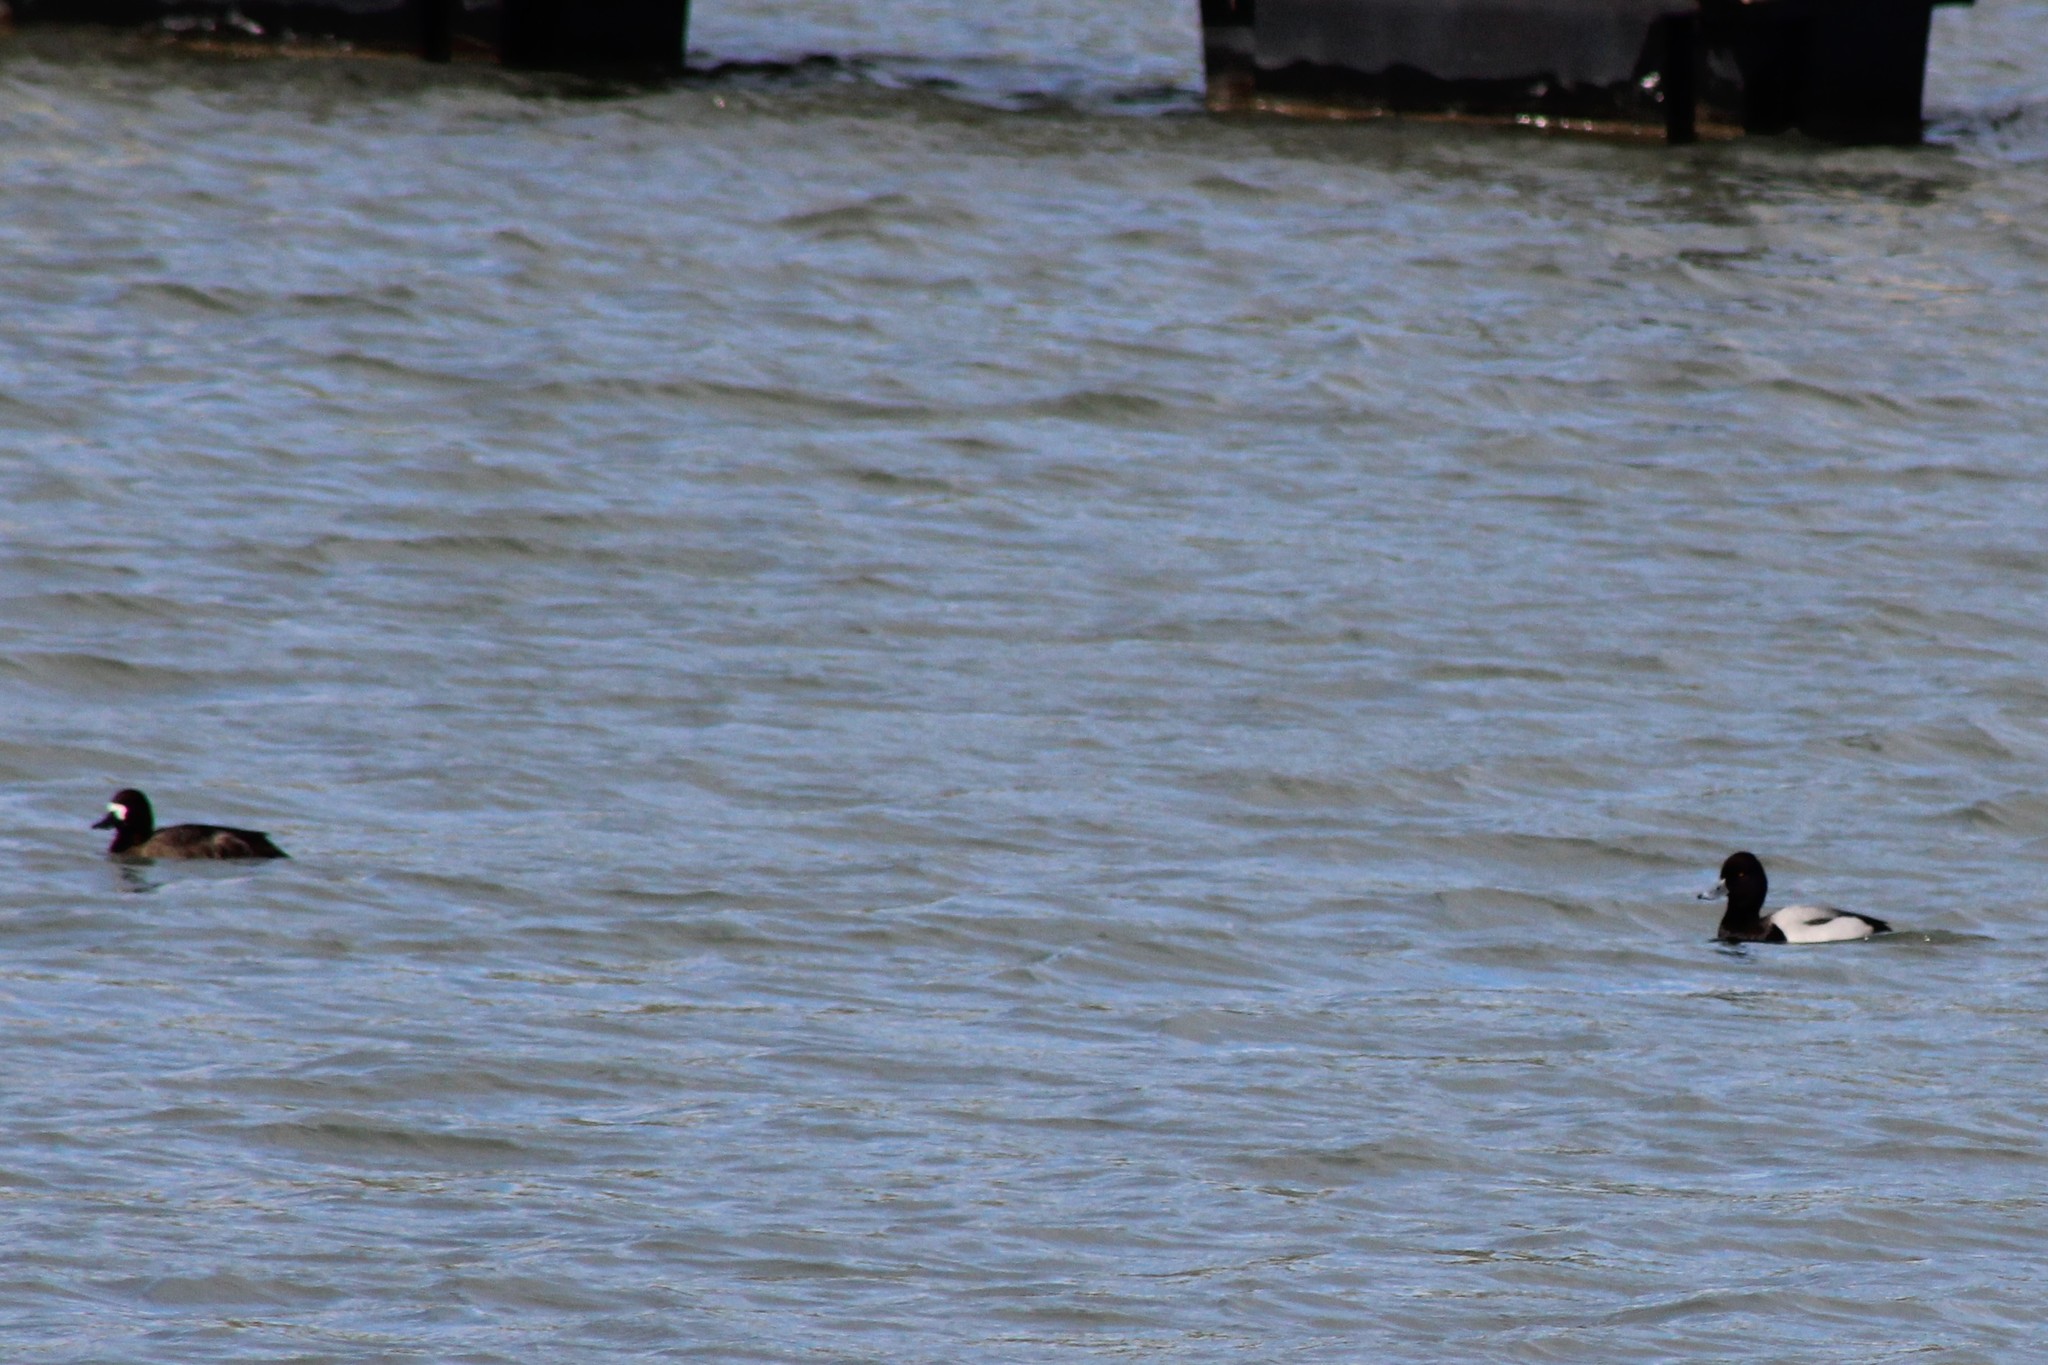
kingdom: Animalia
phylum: Chordata
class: Aves
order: Anseriformes
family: Anatidae
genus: Aythya
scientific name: Aythya affinis
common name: Lesser scaup
